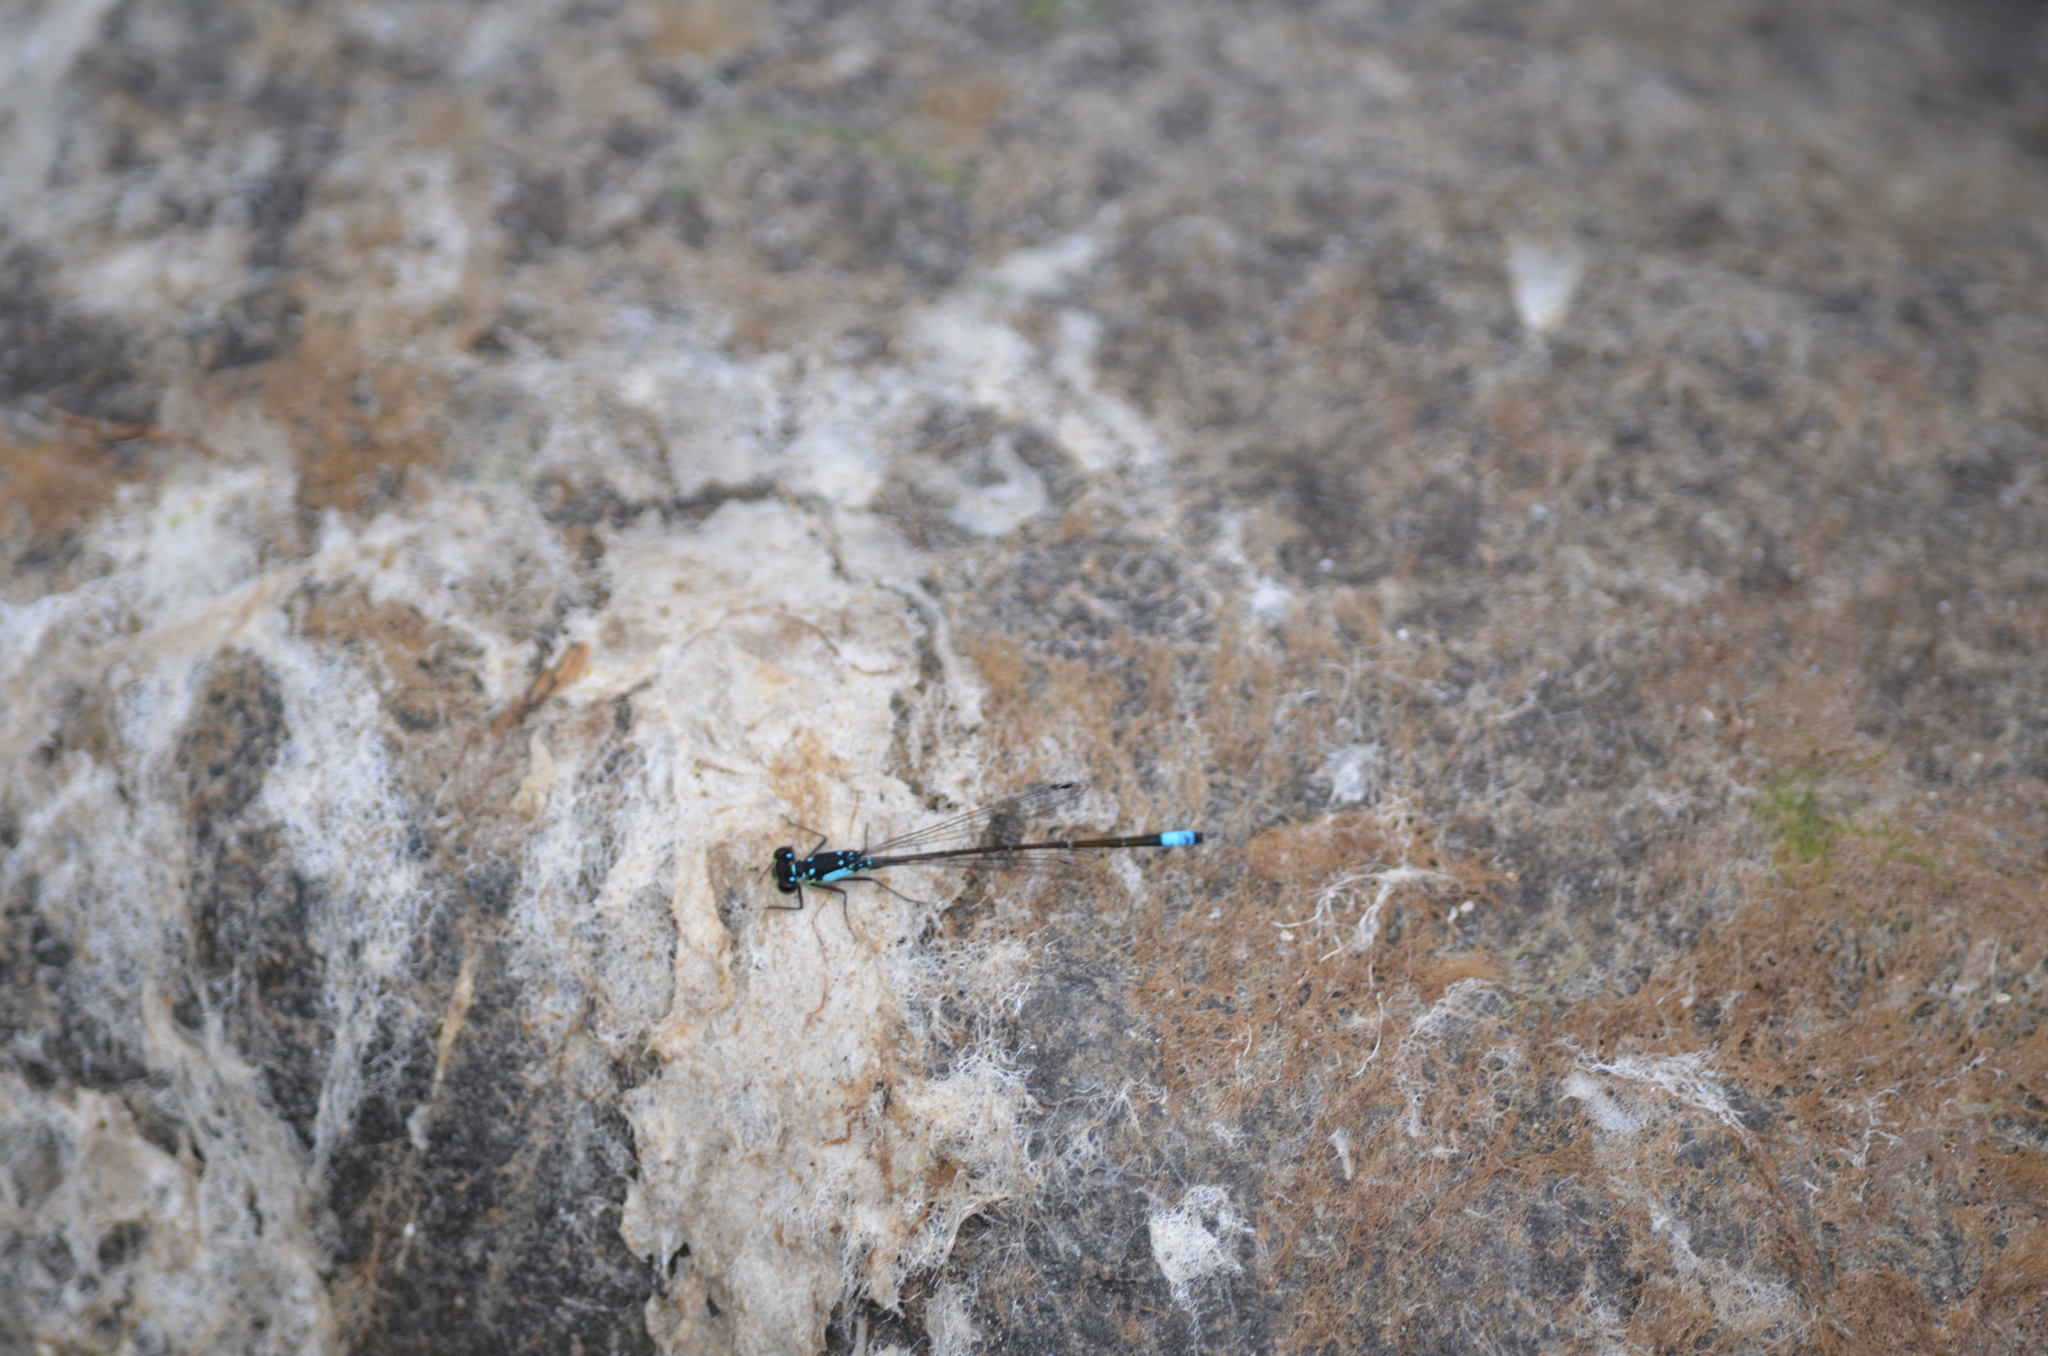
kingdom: Animalia
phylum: Arthropoda
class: Insecta
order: Odonata
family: Coenagrionidae
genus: Ischnura
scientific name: Ischnura cervula
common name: Pacific forktail
